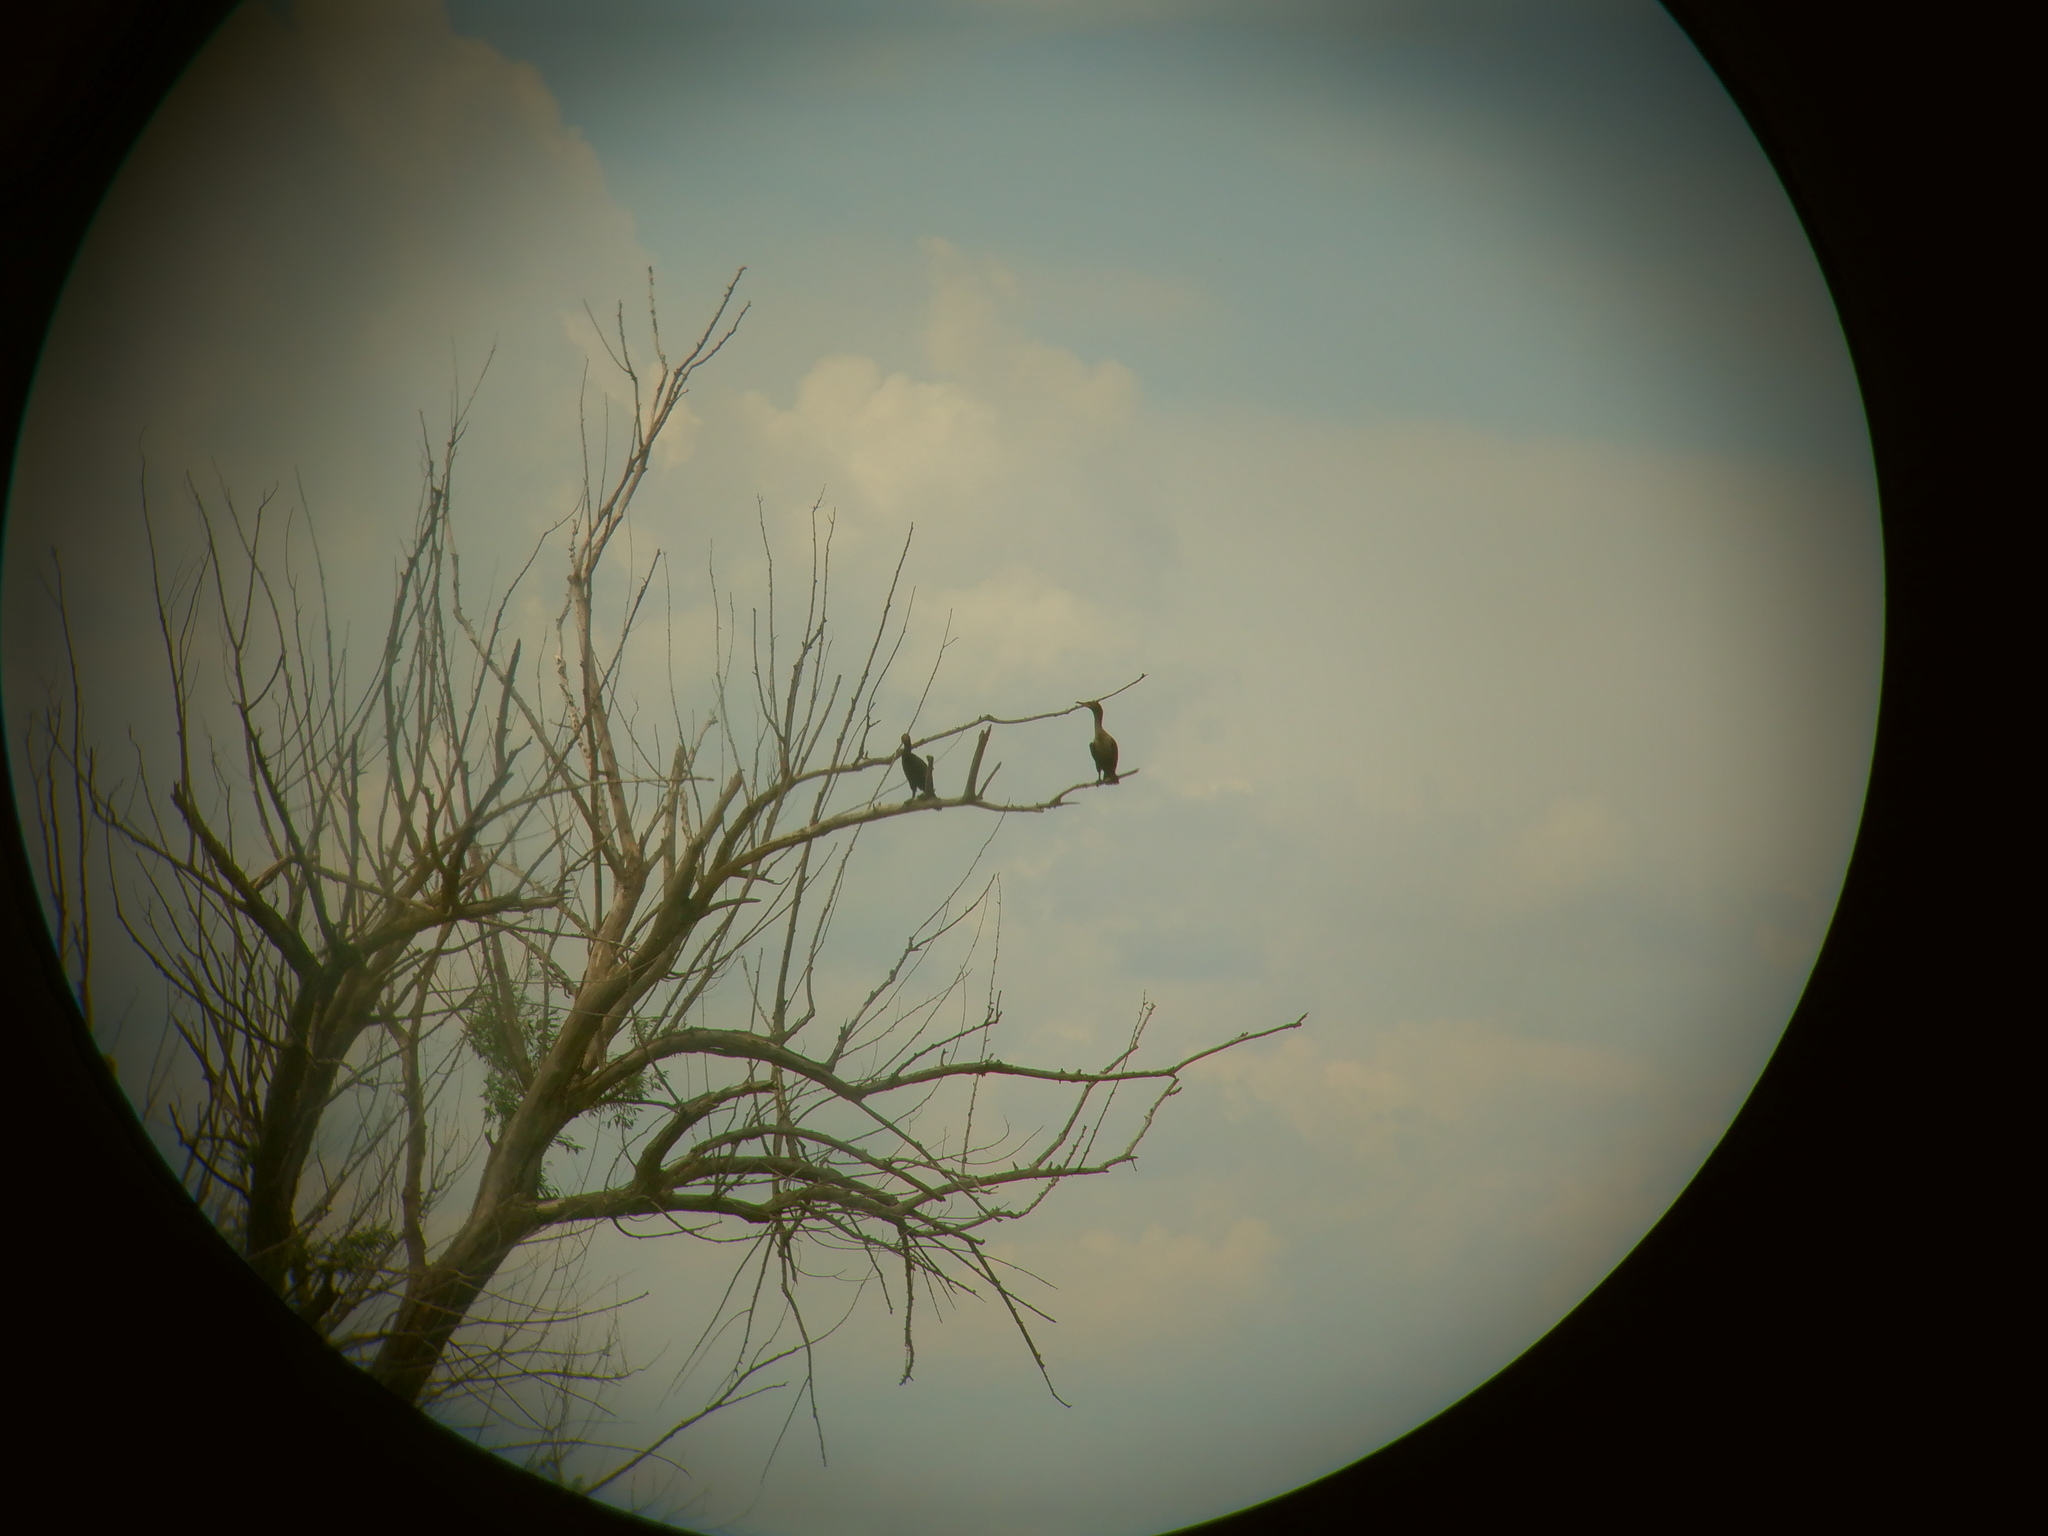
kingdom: Animalia
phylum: Chordata
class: Aves
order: Suliformes
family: Phalacrocoracidae
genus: Phalacrocorax
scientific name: Phalacrocorax auritus
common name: Double-crested cormorant
